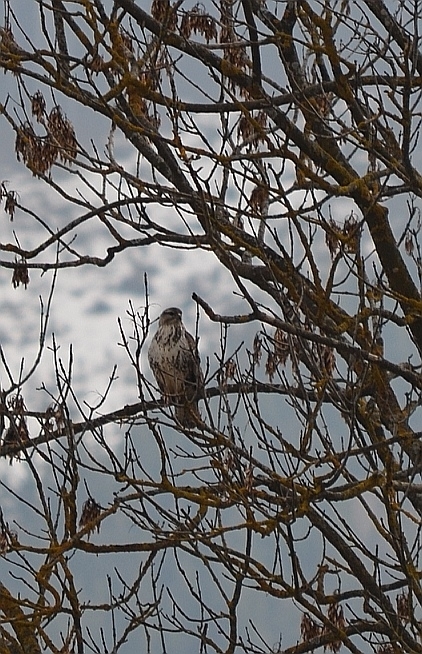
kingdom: Animalia
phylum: Chordata
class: Aves
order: Accipitriformes
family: Accipitridae
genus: Buteo
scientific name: Buteo buteo
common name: Common buzzard
